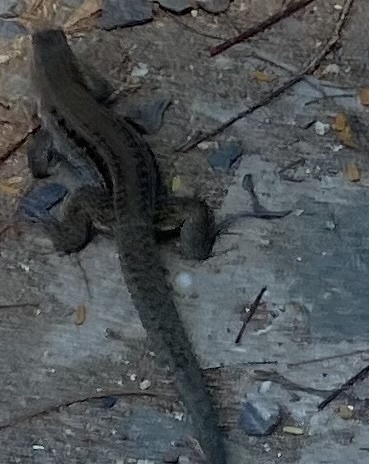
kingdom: Animalia
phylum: Chordata
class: Squamata
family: Teiidae
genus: Pholidoscelis
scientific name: Pholidoscelis exsul
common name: Common puerto rican ameiva
